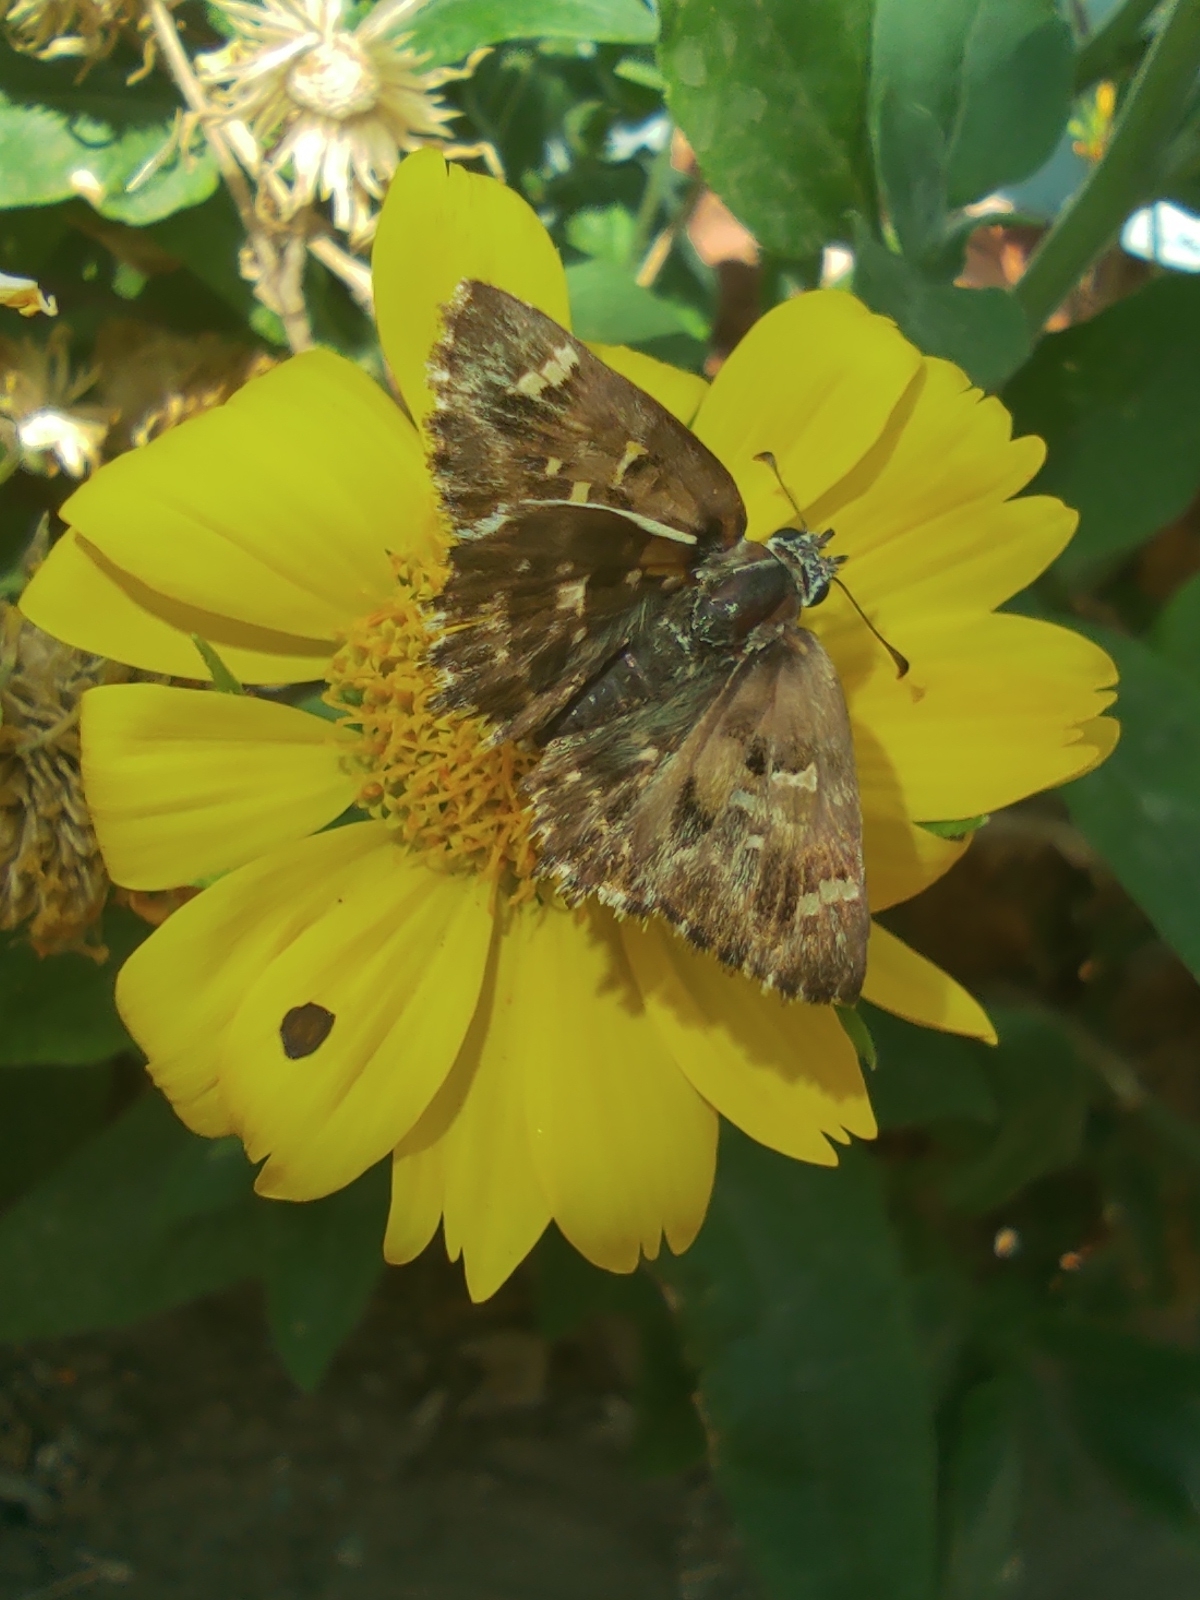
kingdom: Animalia
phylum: Arthropoda
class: Insecta
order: Lepidoptera
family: Hesperiidae
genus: Carcharodus
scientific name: Carcharodus alceae
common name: Mallow skipper
